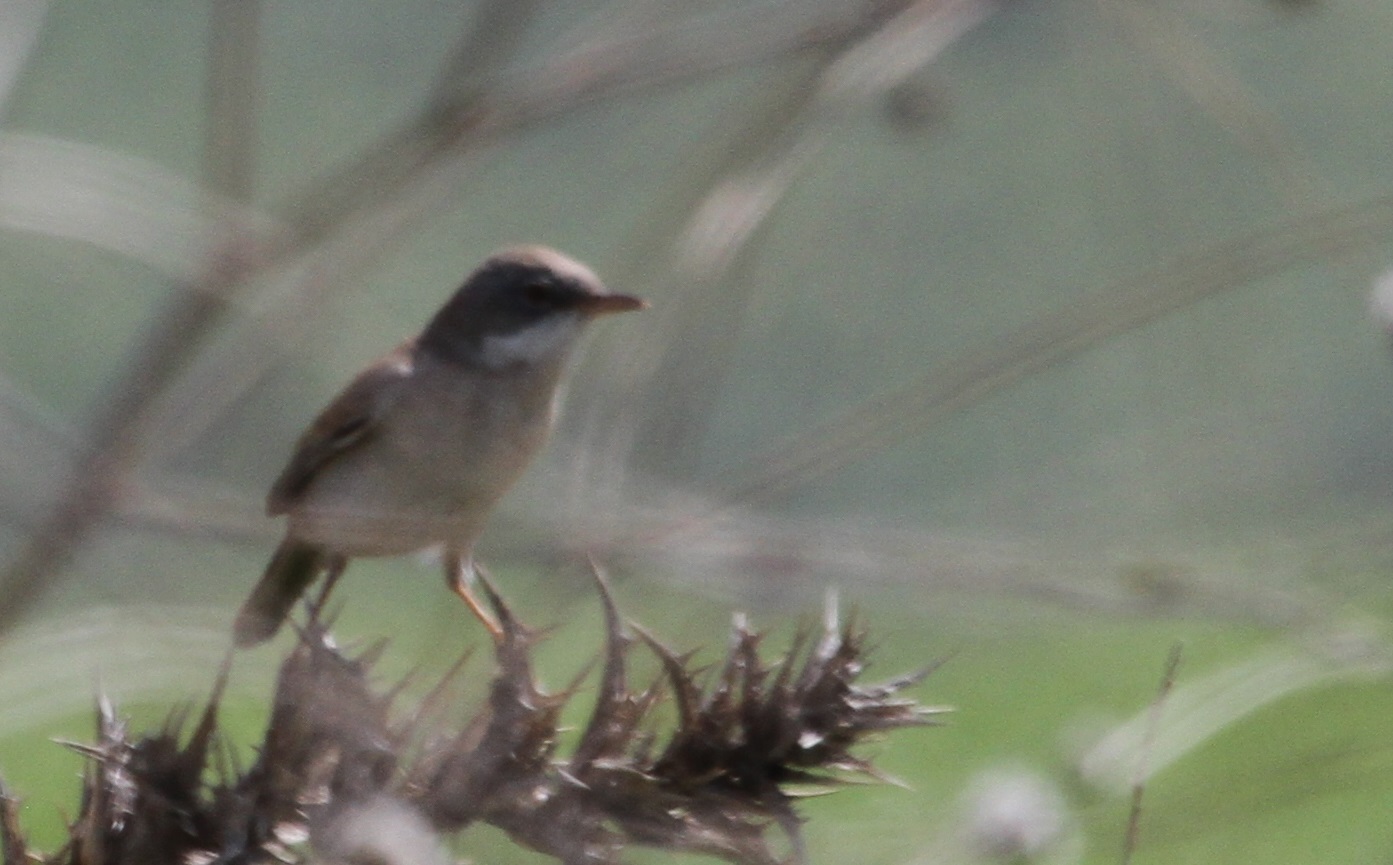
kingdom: Animalia
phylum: Chordata
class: Aves
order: Passeriformes
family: Sylviidae
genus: Sylvia
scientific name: Sylvia communis
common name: Common whitethroat
